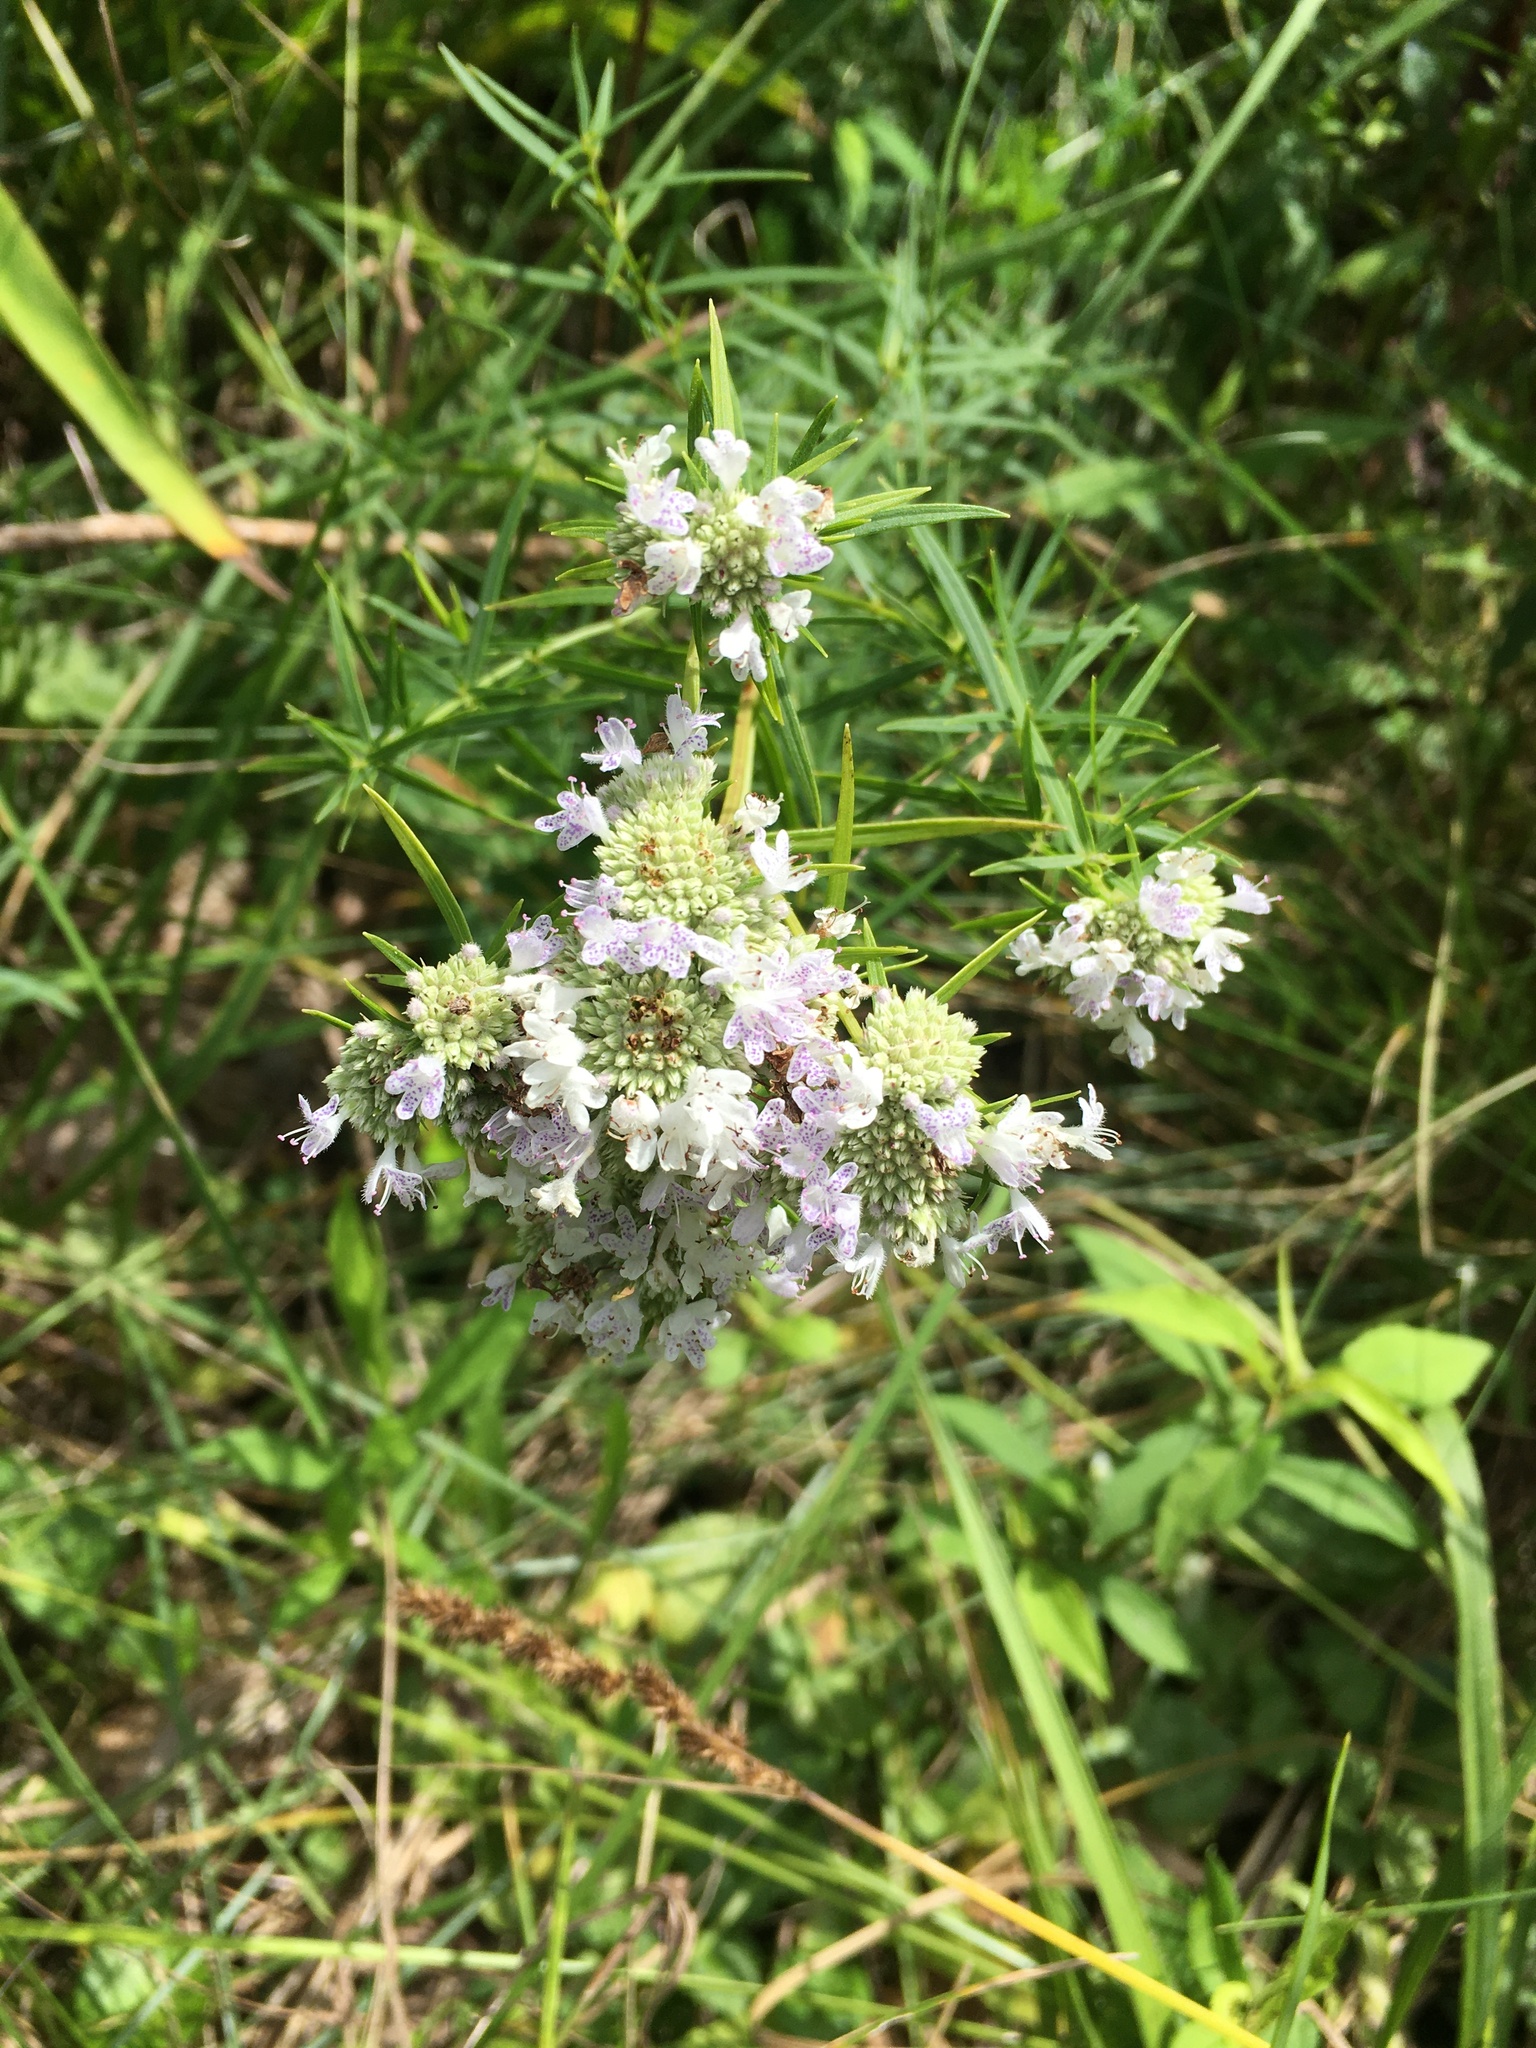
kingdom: Plantae
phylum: Tracheophyta
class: Magnoliopsida
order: Lamiales
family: Lamiaceae
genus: Pycnanthemum
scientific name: Pycnanthemum tenuifolium
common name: Narrow-leaf mountain-mint
